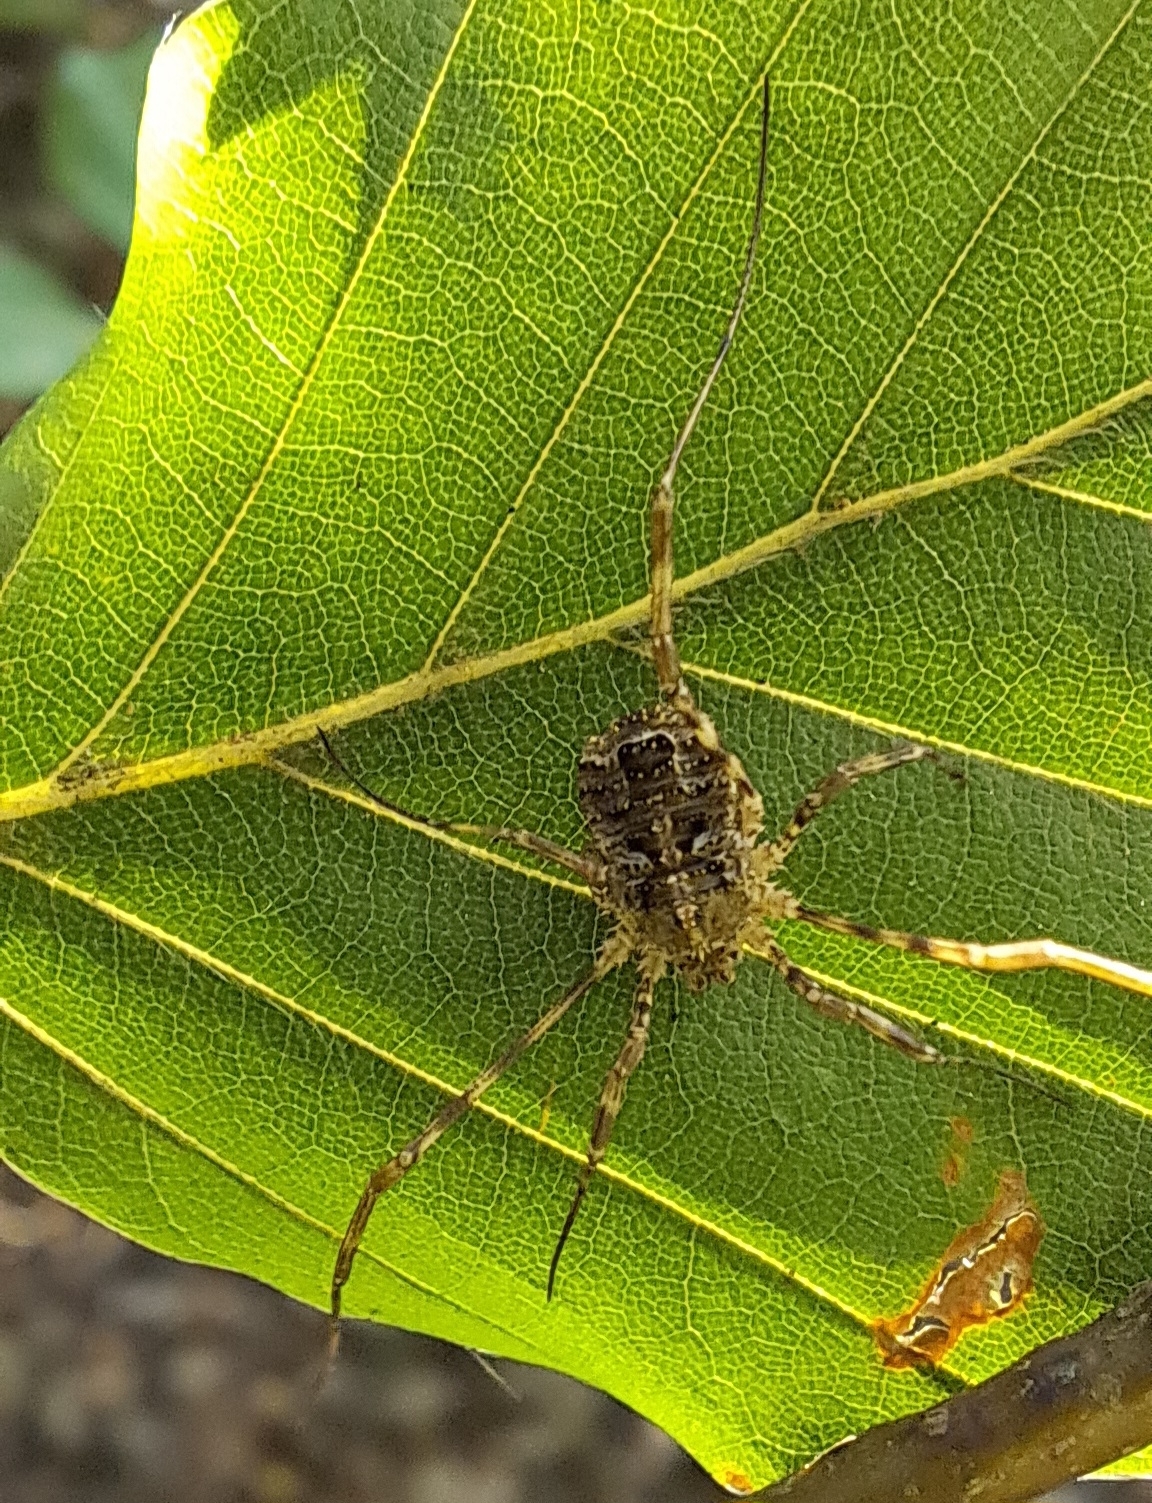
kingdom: Animalia
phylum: Arthropoda
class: Arachnida
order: Opiliones
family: Phalangiidae
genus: Lacinius
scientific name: Lacinius dentiger
